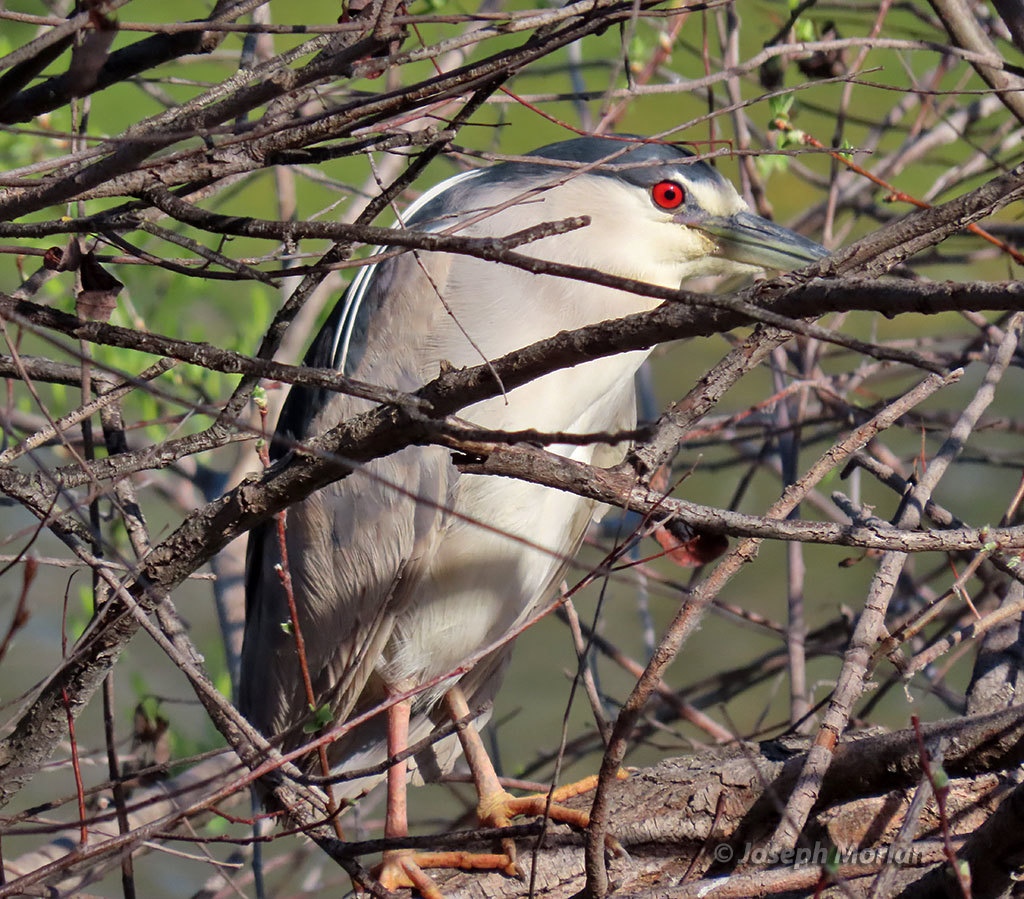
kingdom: Animalia
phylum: Chordata
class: Aves
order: Pelecaniformes
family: Ardeidae
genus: Nycticorax
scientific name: Nycticorax nycticorax
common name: Black-crowned night heron
